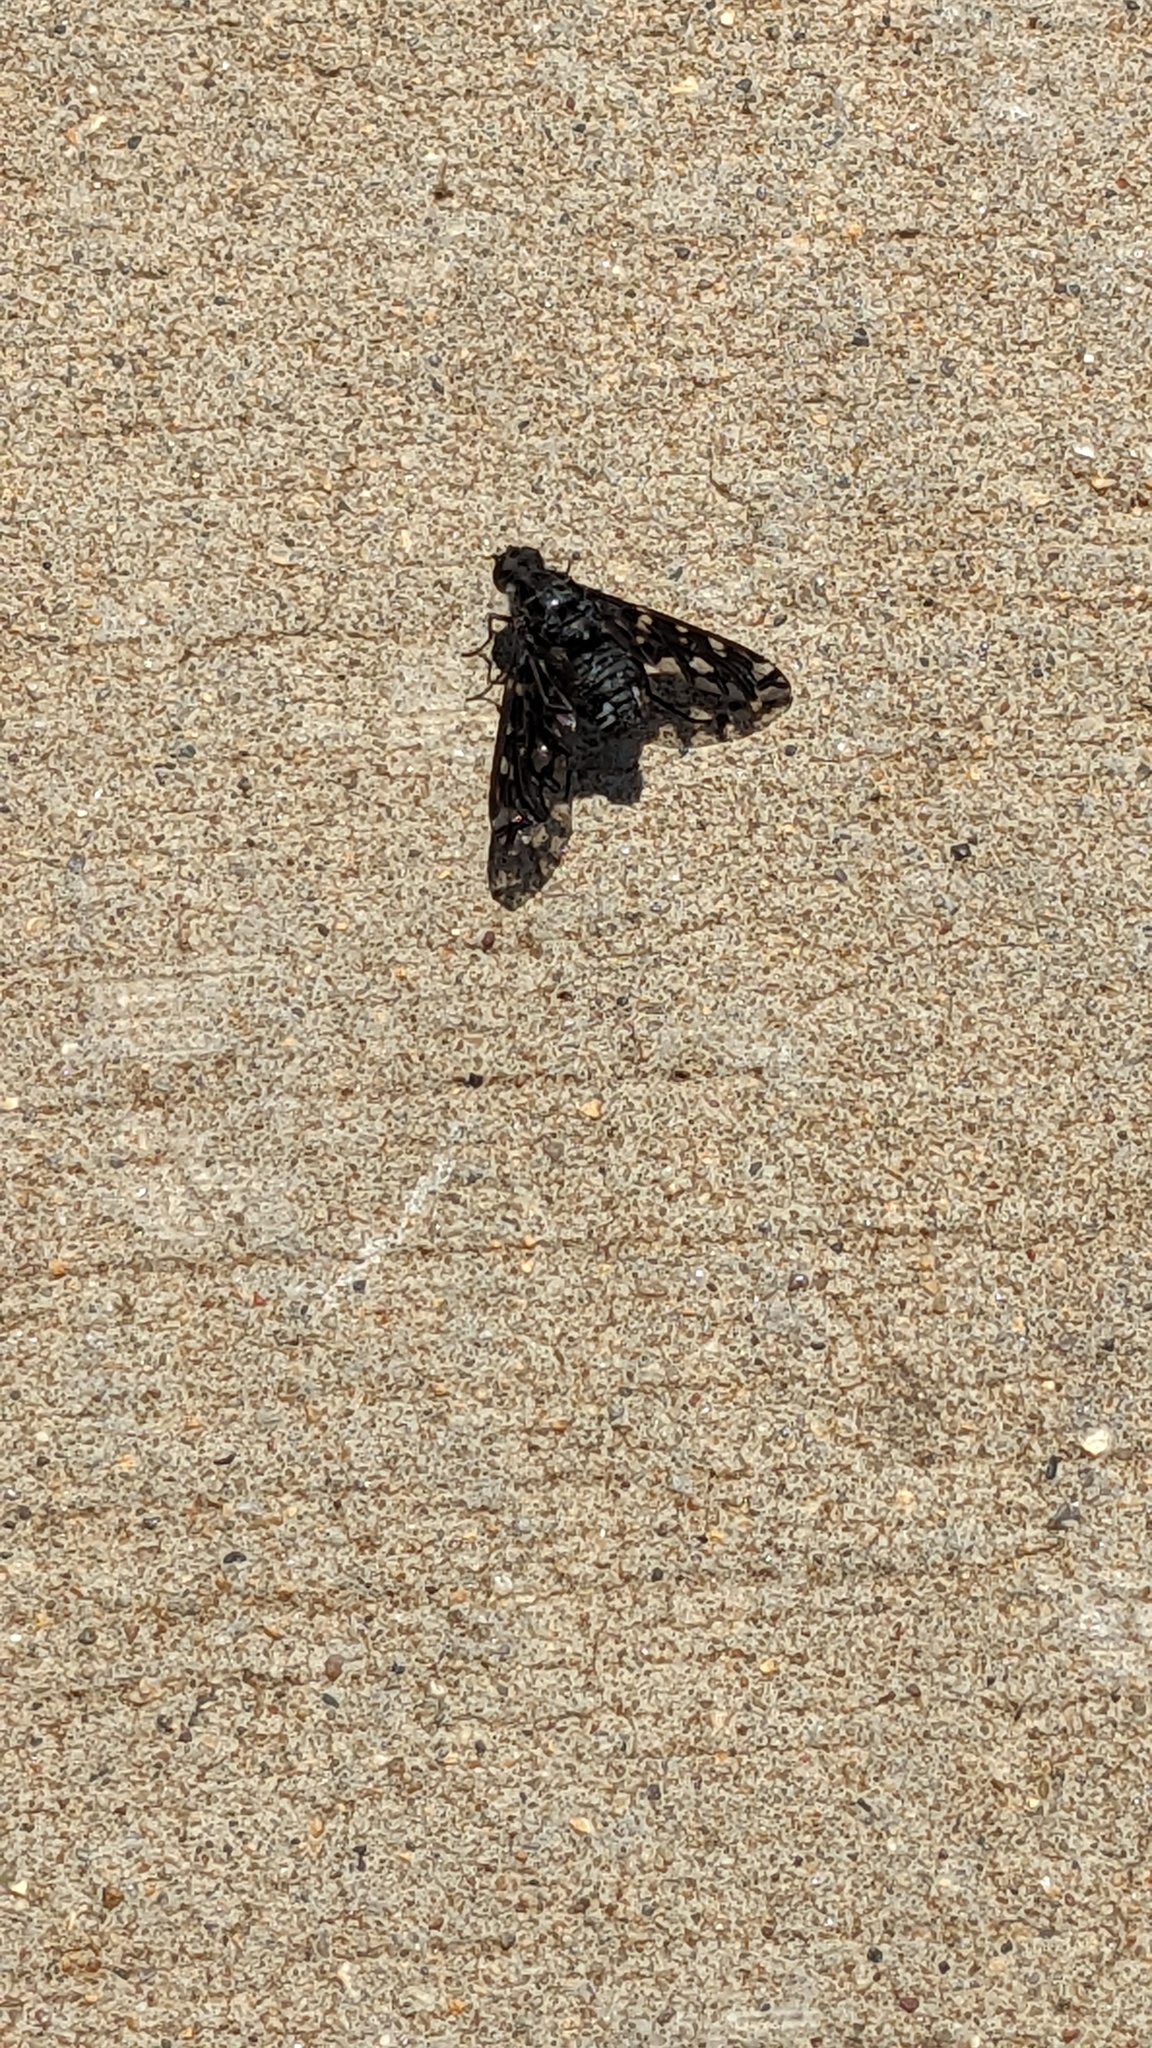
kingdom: Animalia
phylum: Arthropoda
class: Insecta
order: Diptera
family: Bombyliidae
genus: Xenox
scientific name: Xenox tigrinus
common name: Tiger bee fly
